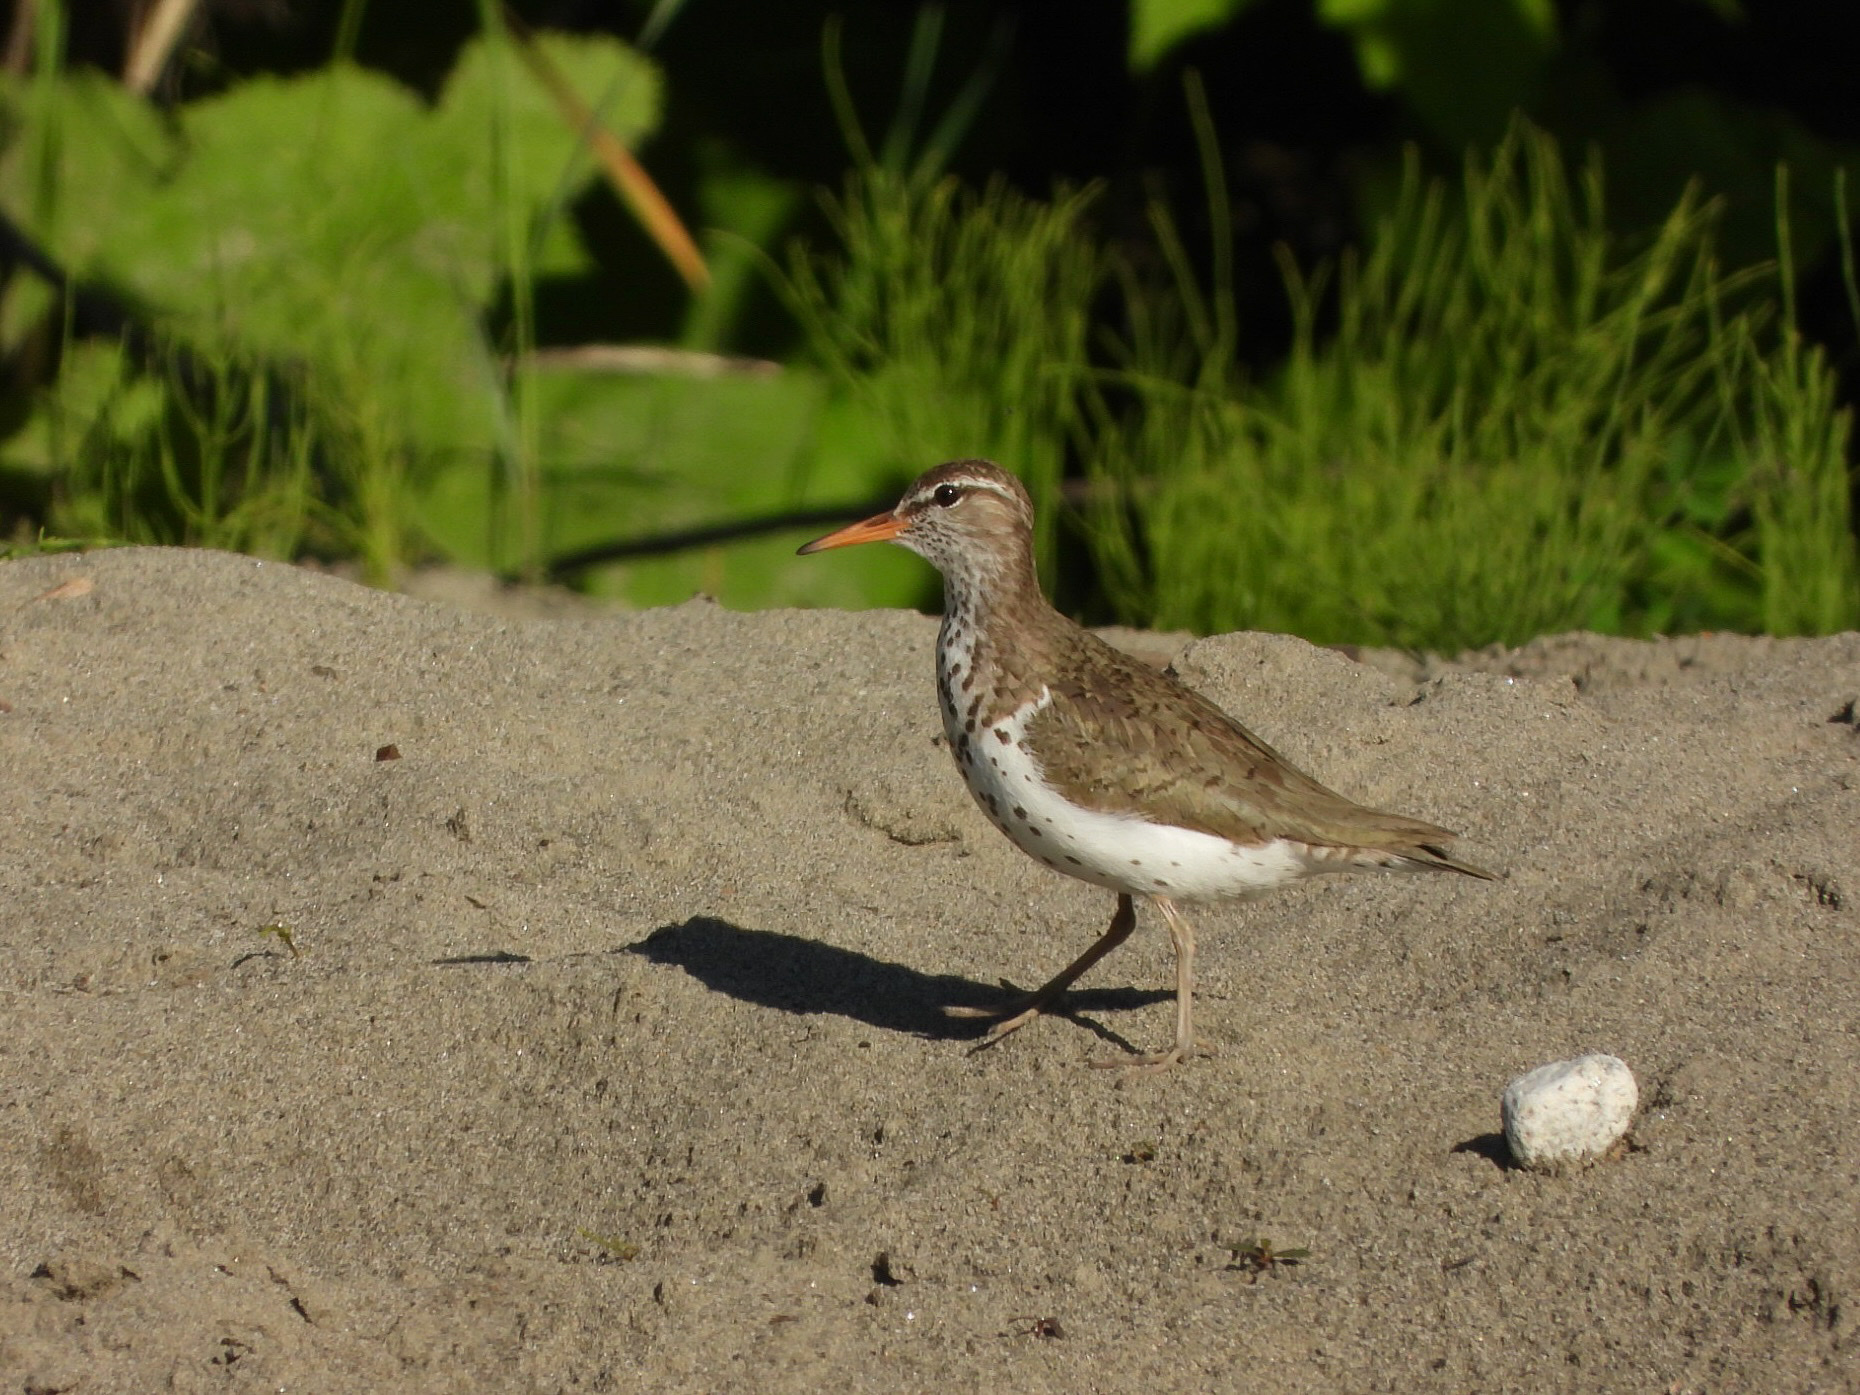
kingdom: Animalia
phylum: Chordata
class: Aves
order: Charadriiformes
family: Scolopacidae
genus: Actitis
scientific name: Actitis macularius
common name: Spotted sandpiper
